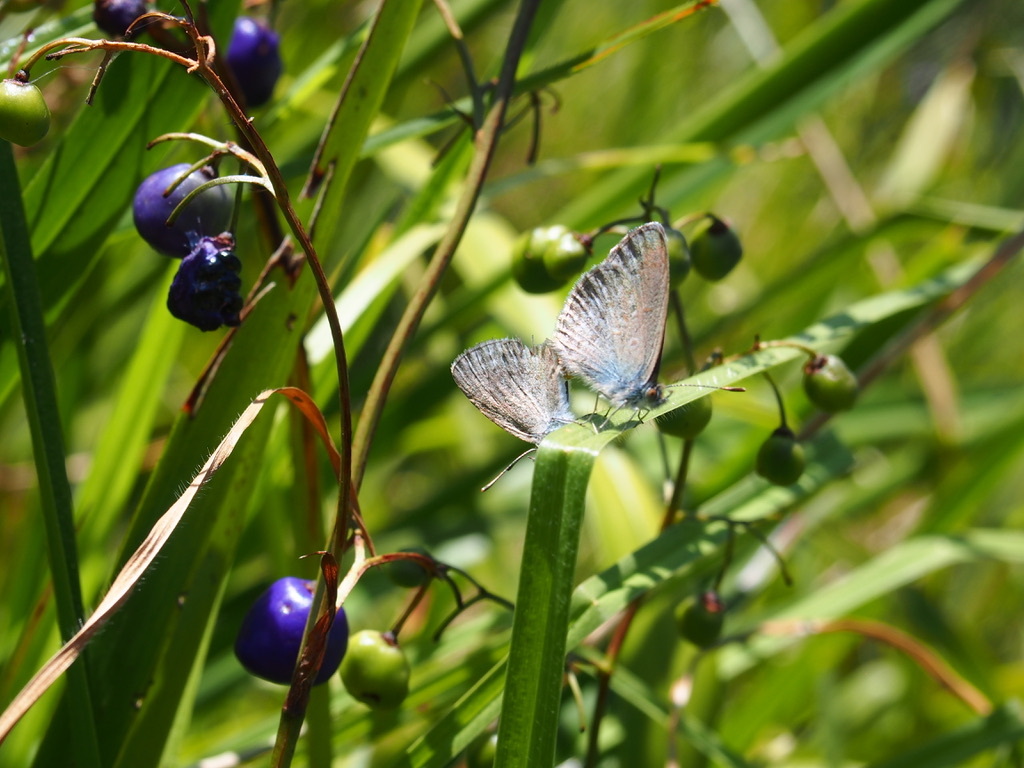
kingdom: Animalia
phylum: Arthropoda
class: Insecta
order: Lepidoptera
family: Lycaenidae
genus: Zizina
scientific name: Zizina labradus
